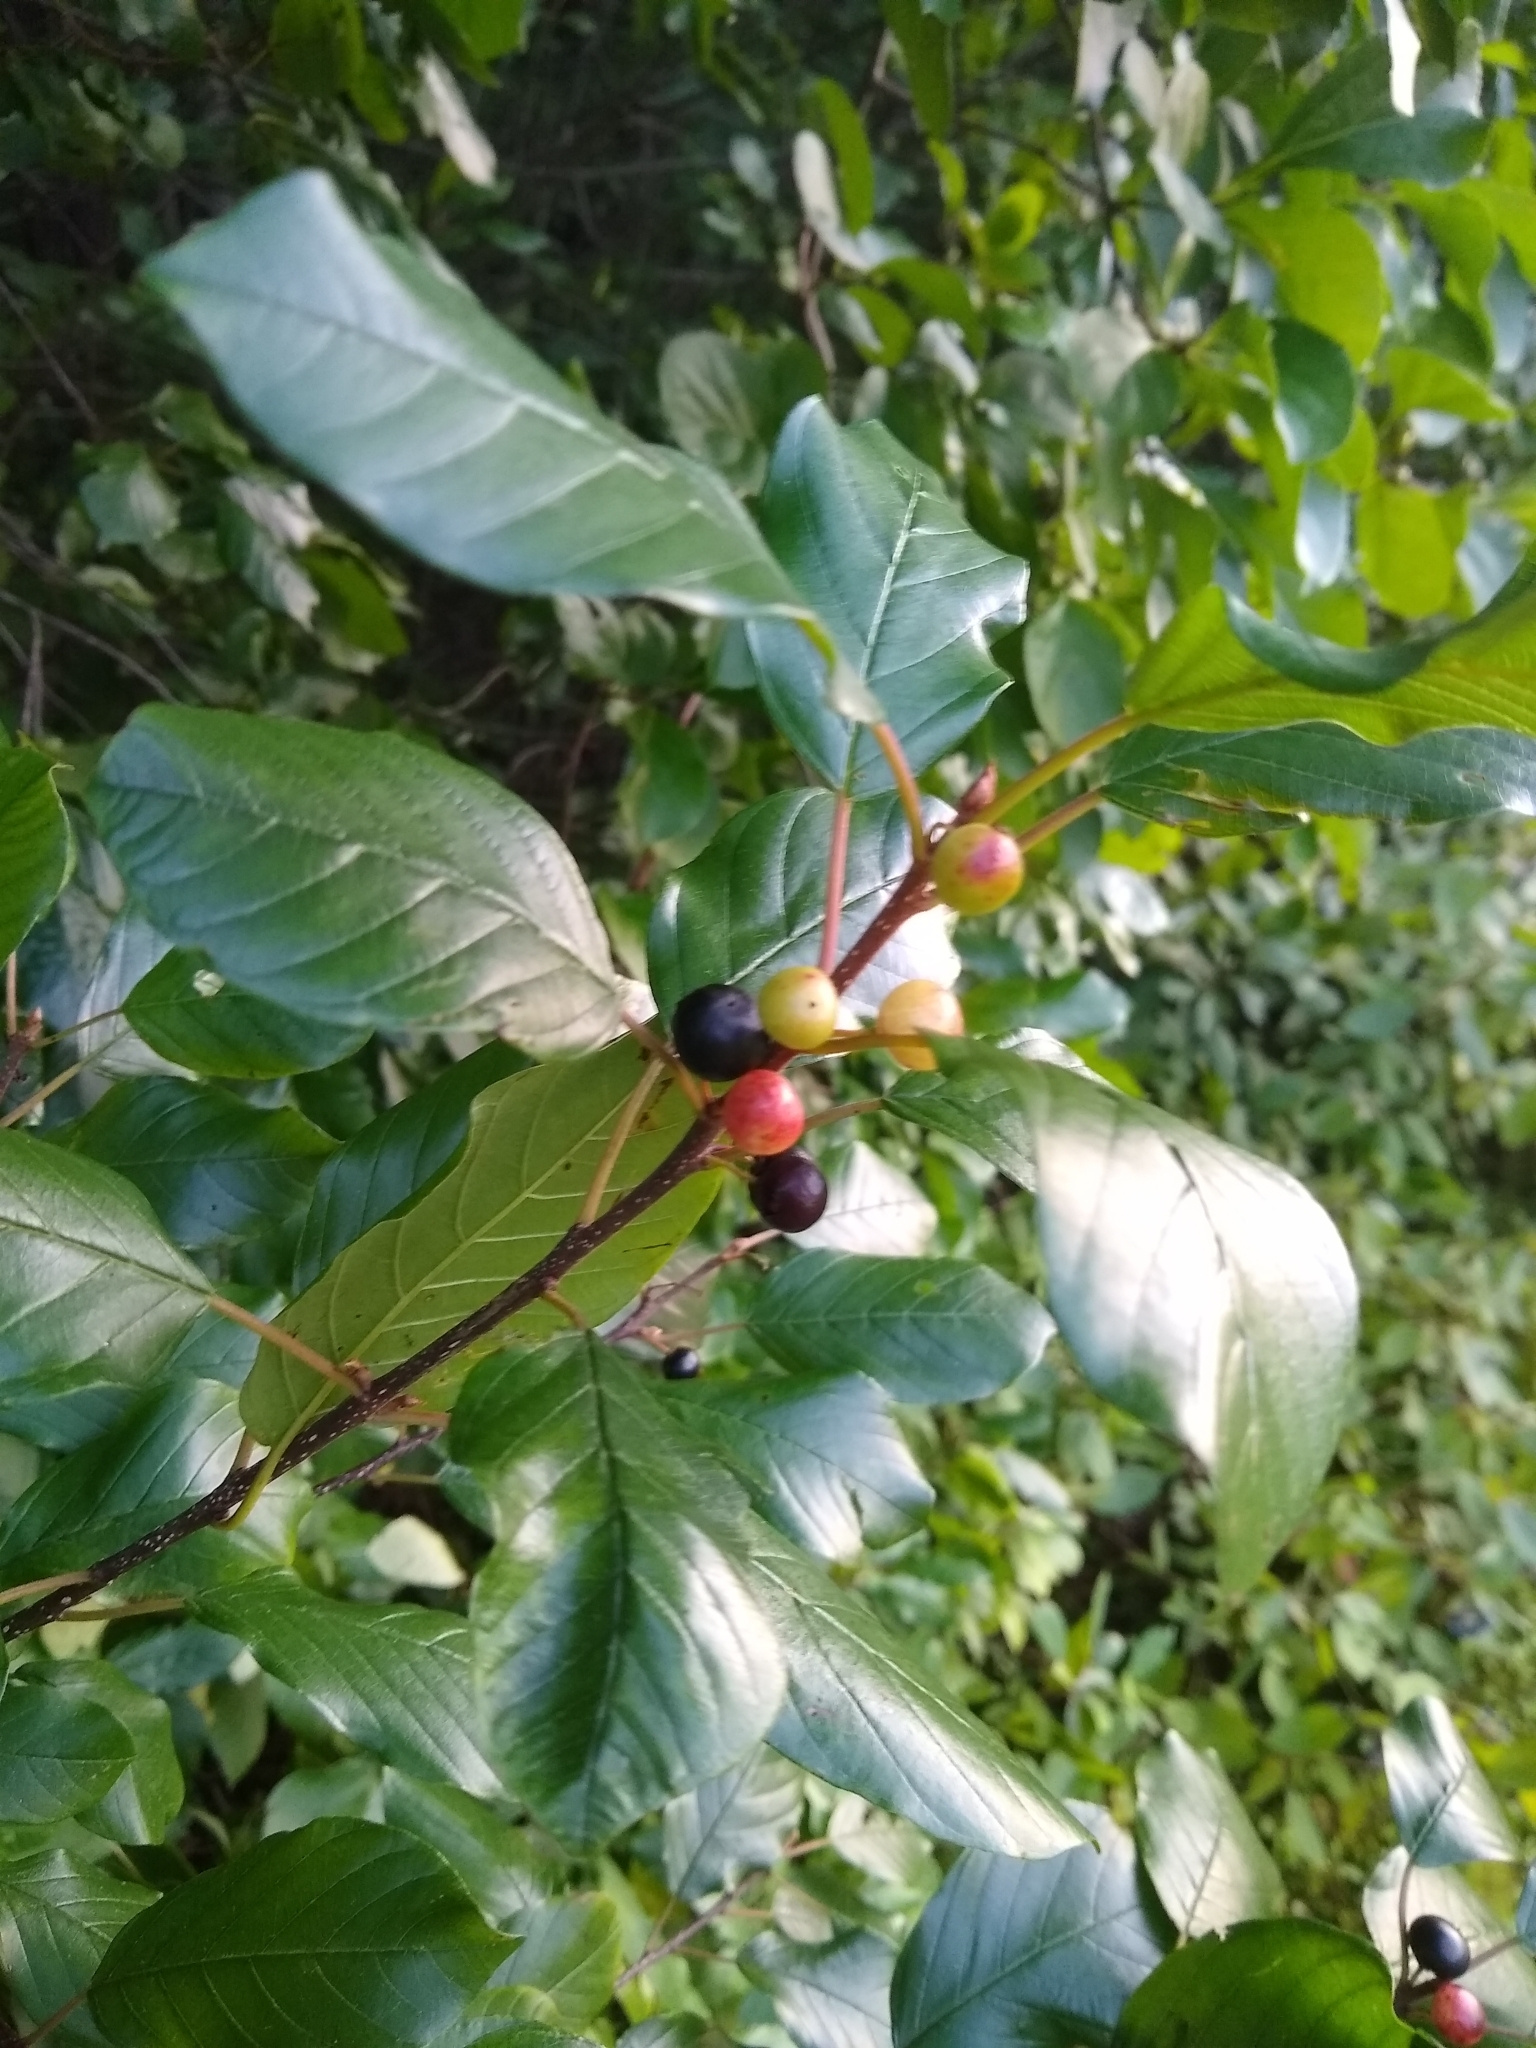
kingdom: Plantae
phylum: Tracheophyta
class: Magnoliopsida
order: Rosales
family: Rhamnaceae
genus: Frangula
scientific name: Frangula alnus
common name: Alder buckthorn
